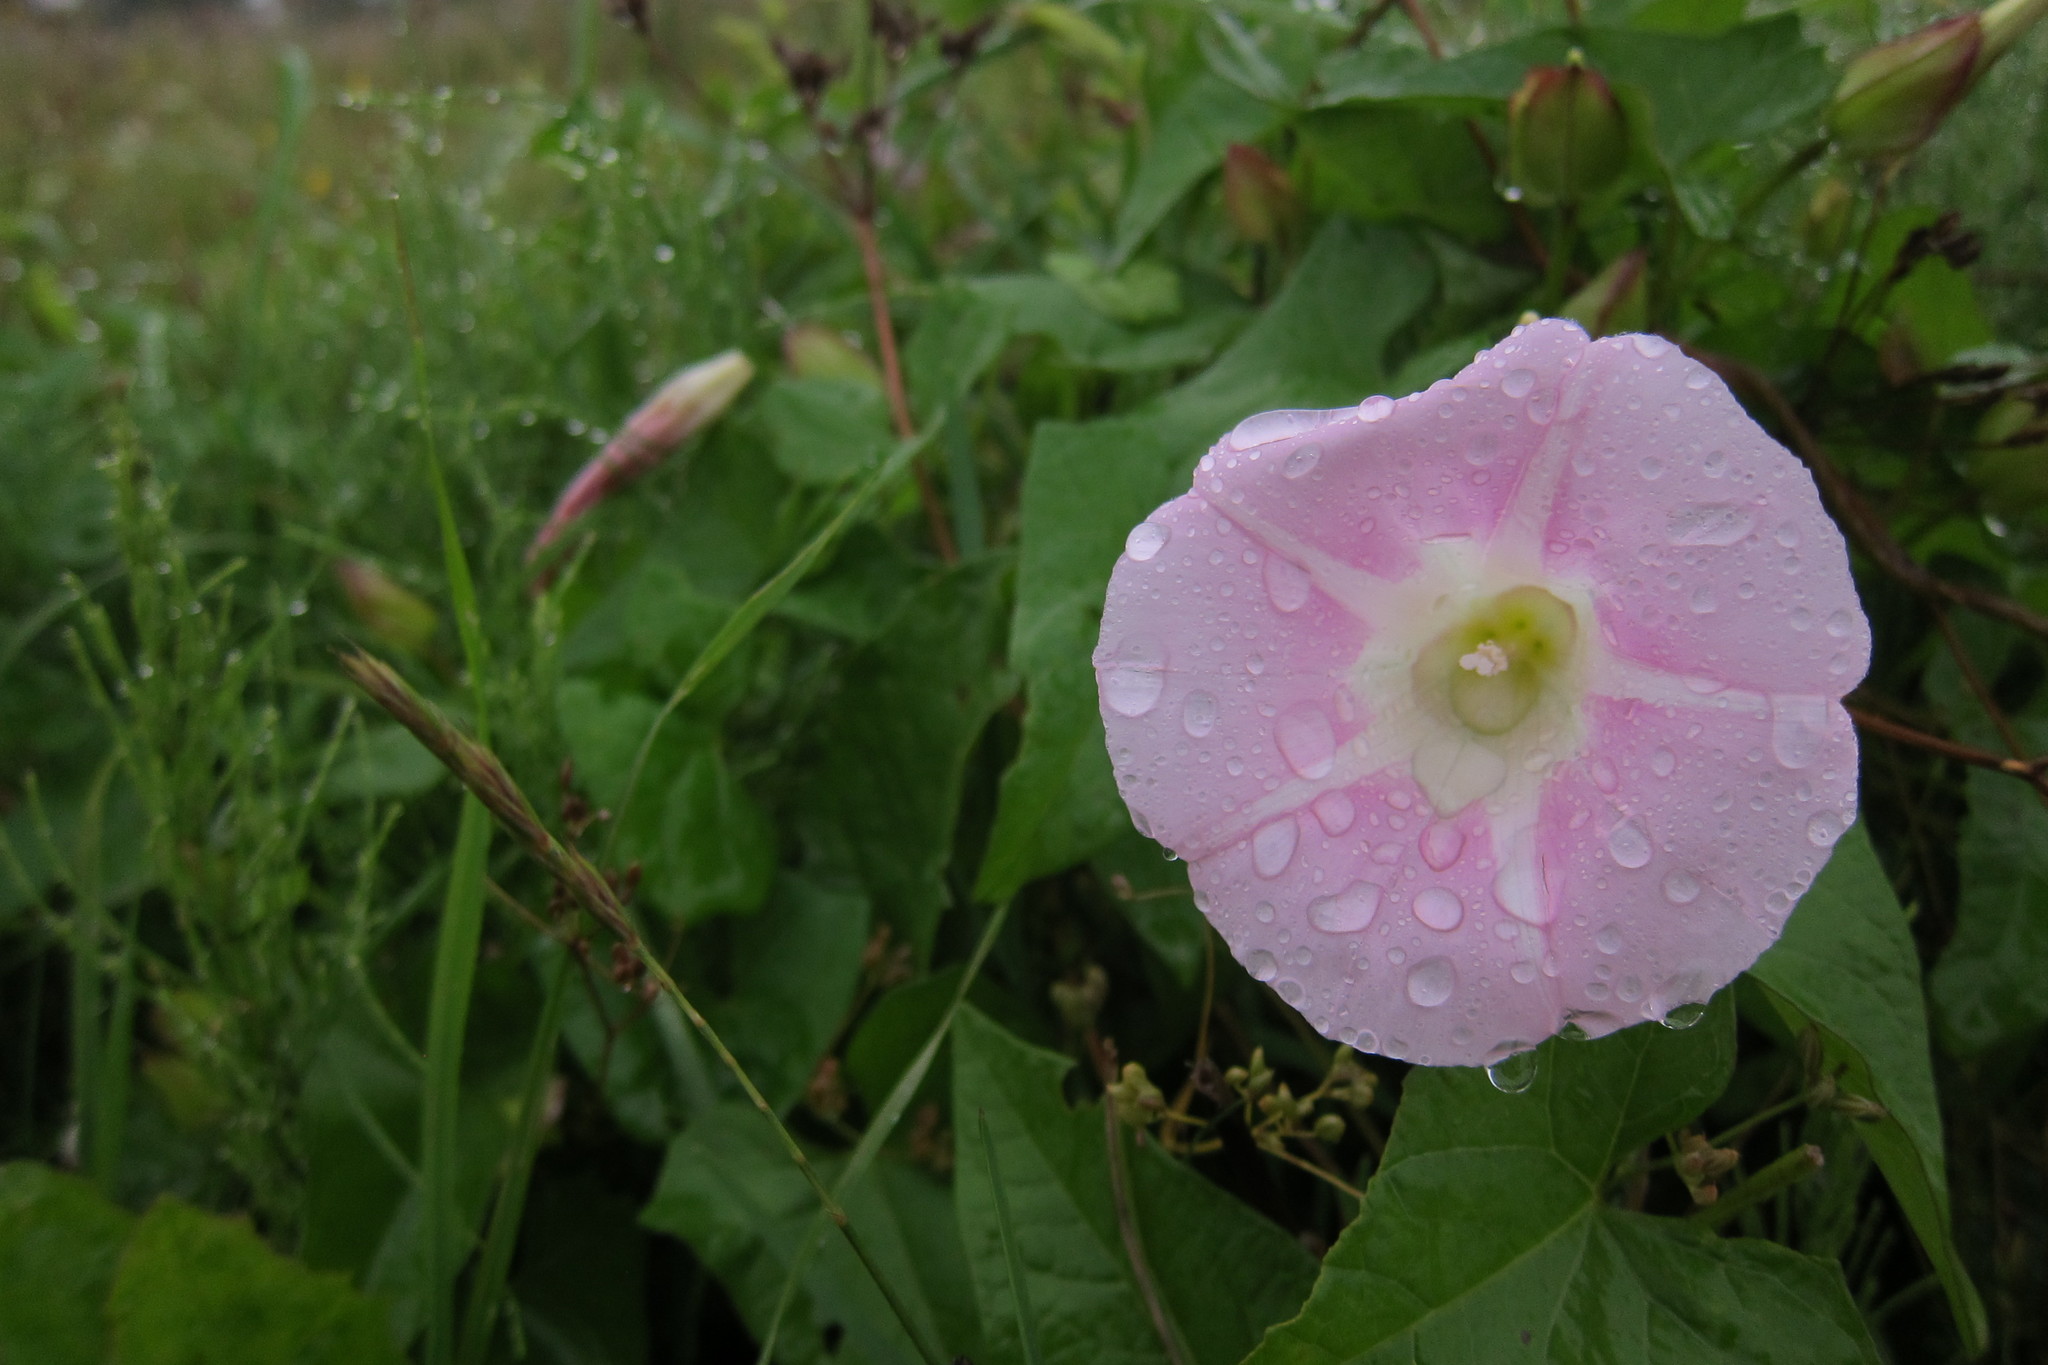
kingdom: Plantae
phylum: Tracheophyta
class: Magnoliopsida
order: Solanales
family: Convolvulaceae
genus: Calystegia
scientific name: Calystegia sepium
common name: Hedge bindweed
